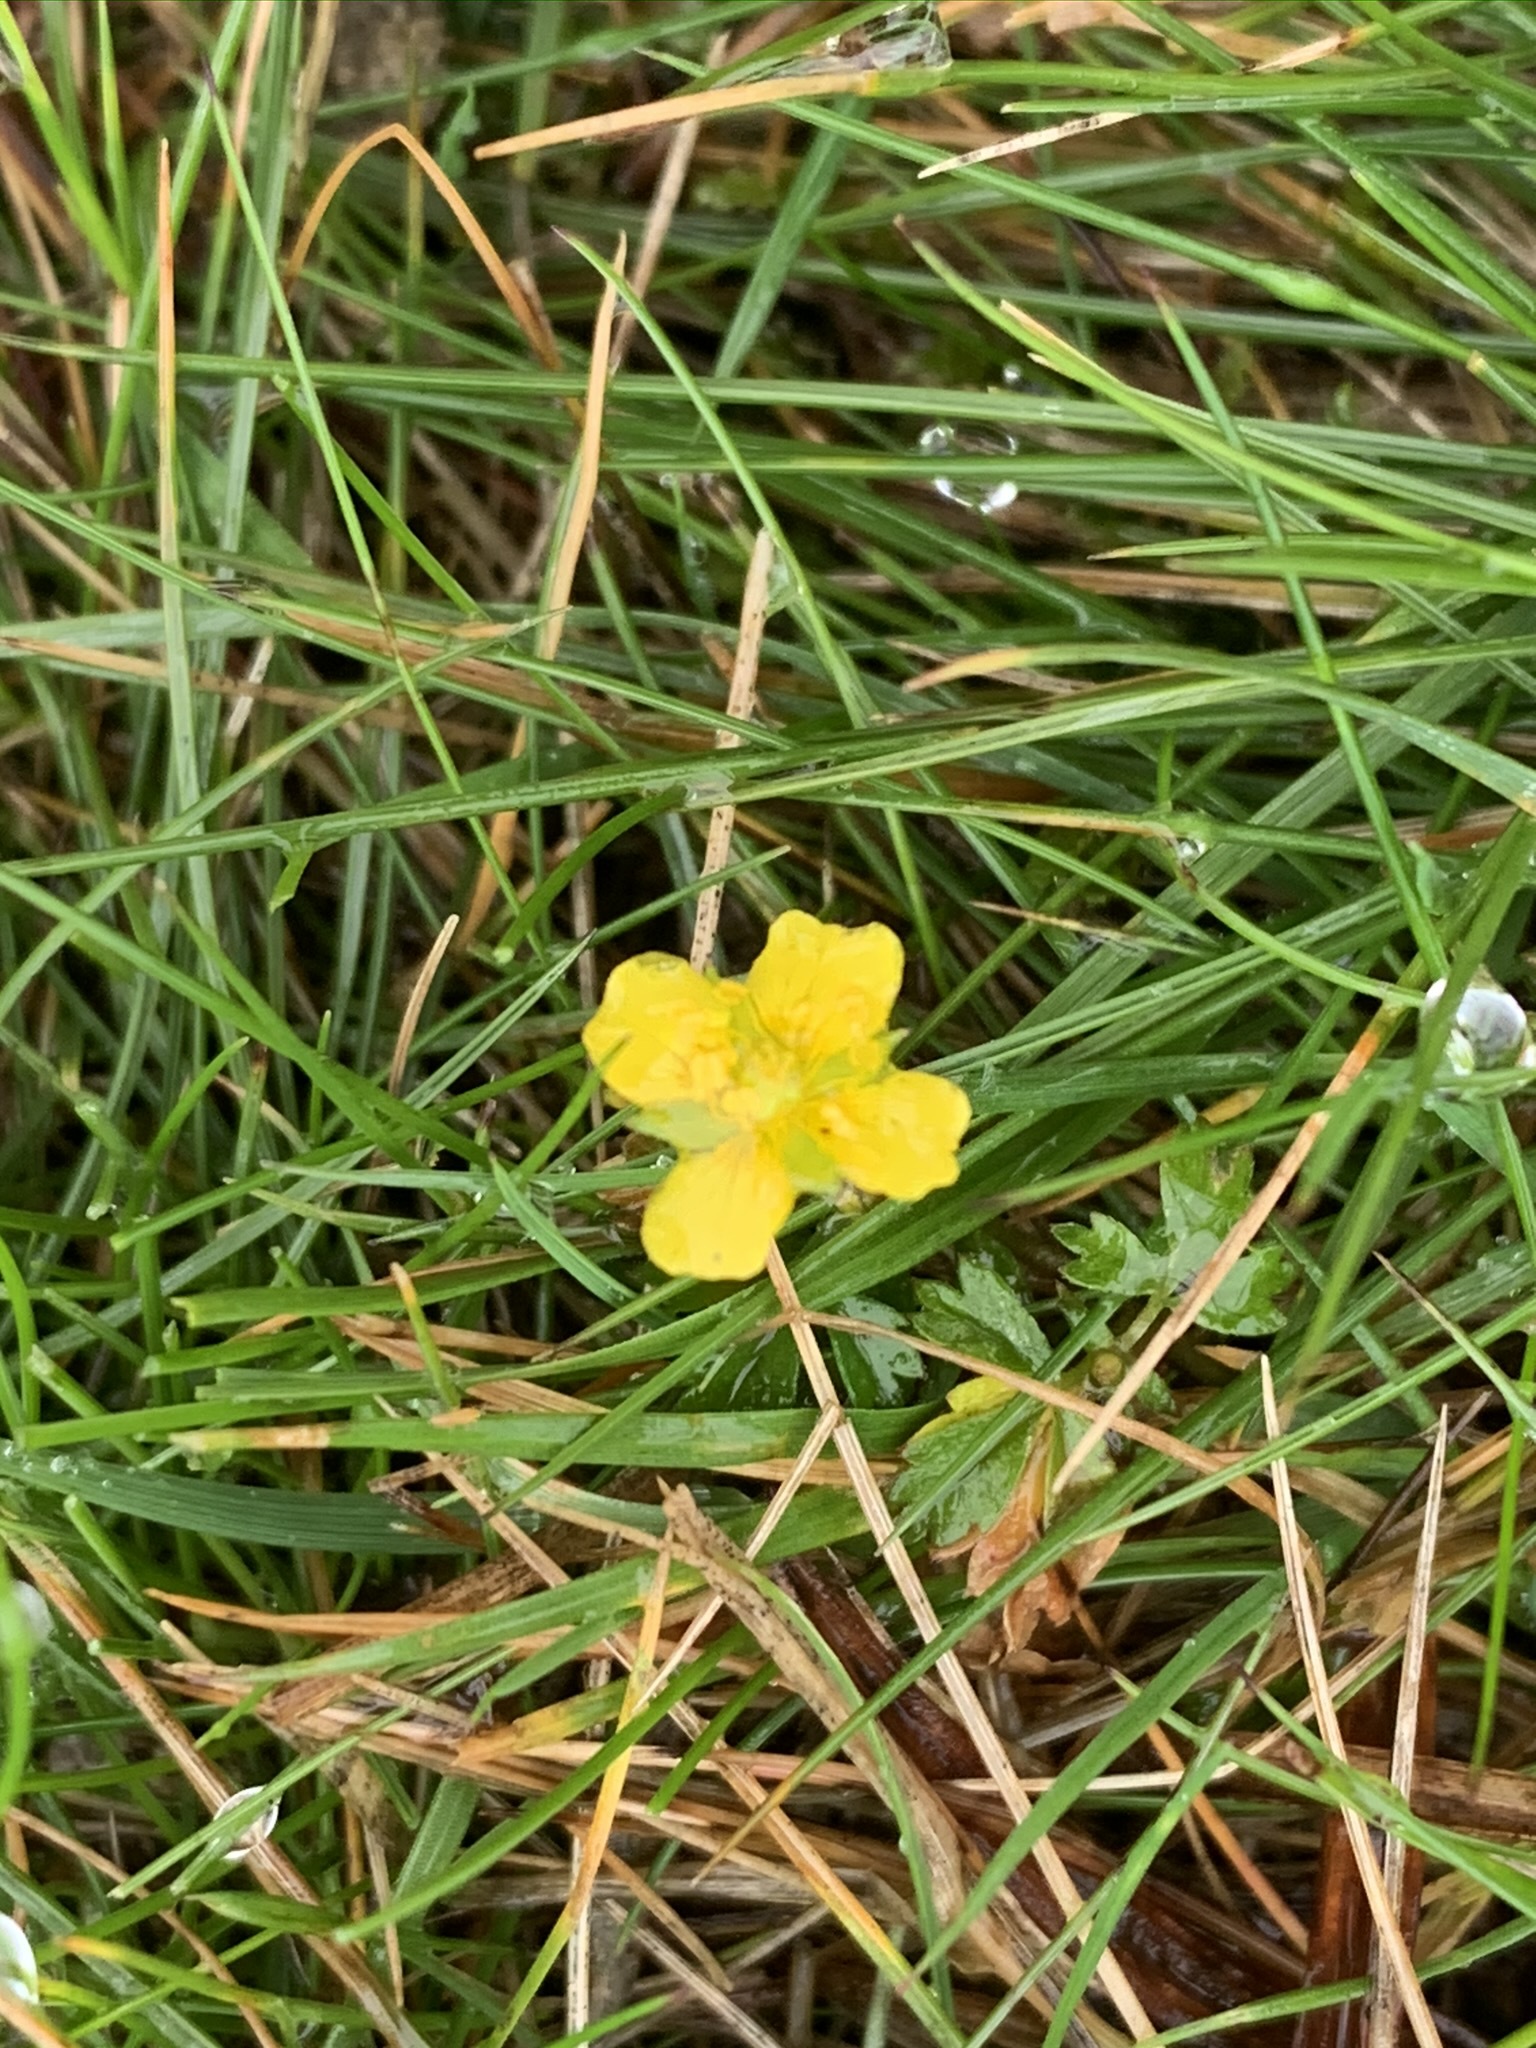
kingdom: Plantae
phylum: Tracheophyta
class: Magnoliopsida
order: Rosales
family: Rosaceae
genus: Potentilla
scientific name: Potentilla erecta
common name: Tormentil
